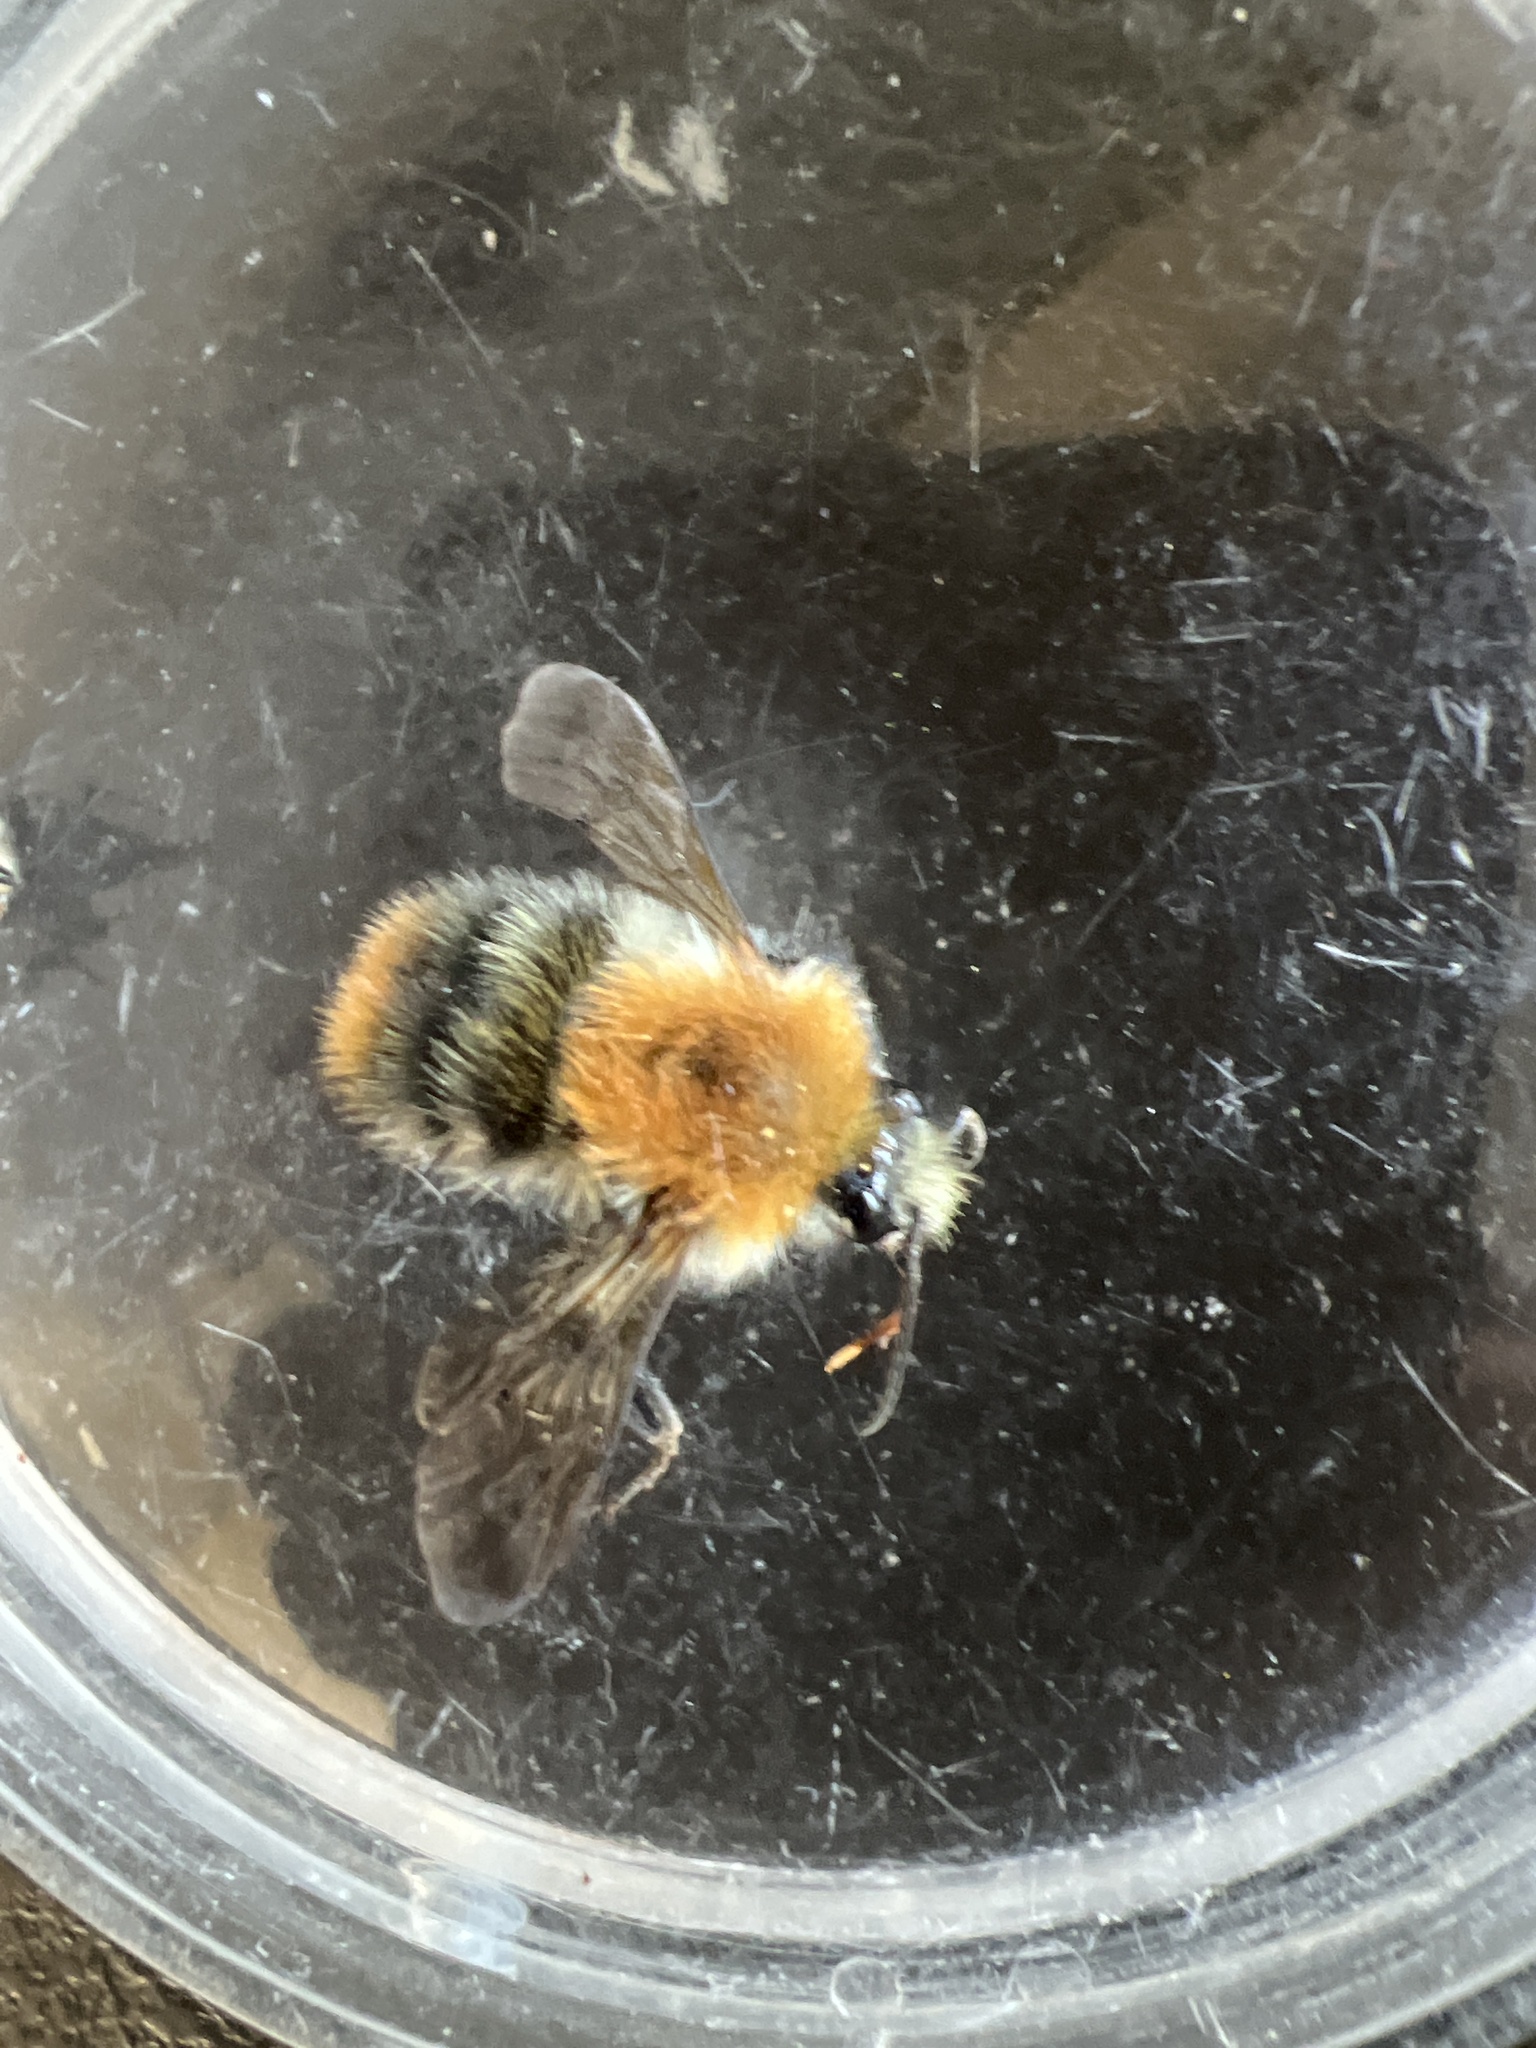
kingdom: Animalia
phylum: Arthropoda
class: Insecta
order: Hymenoptera
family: Apidae
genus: Bombus
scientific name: Bombus pascuorum
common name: Common carder bee
